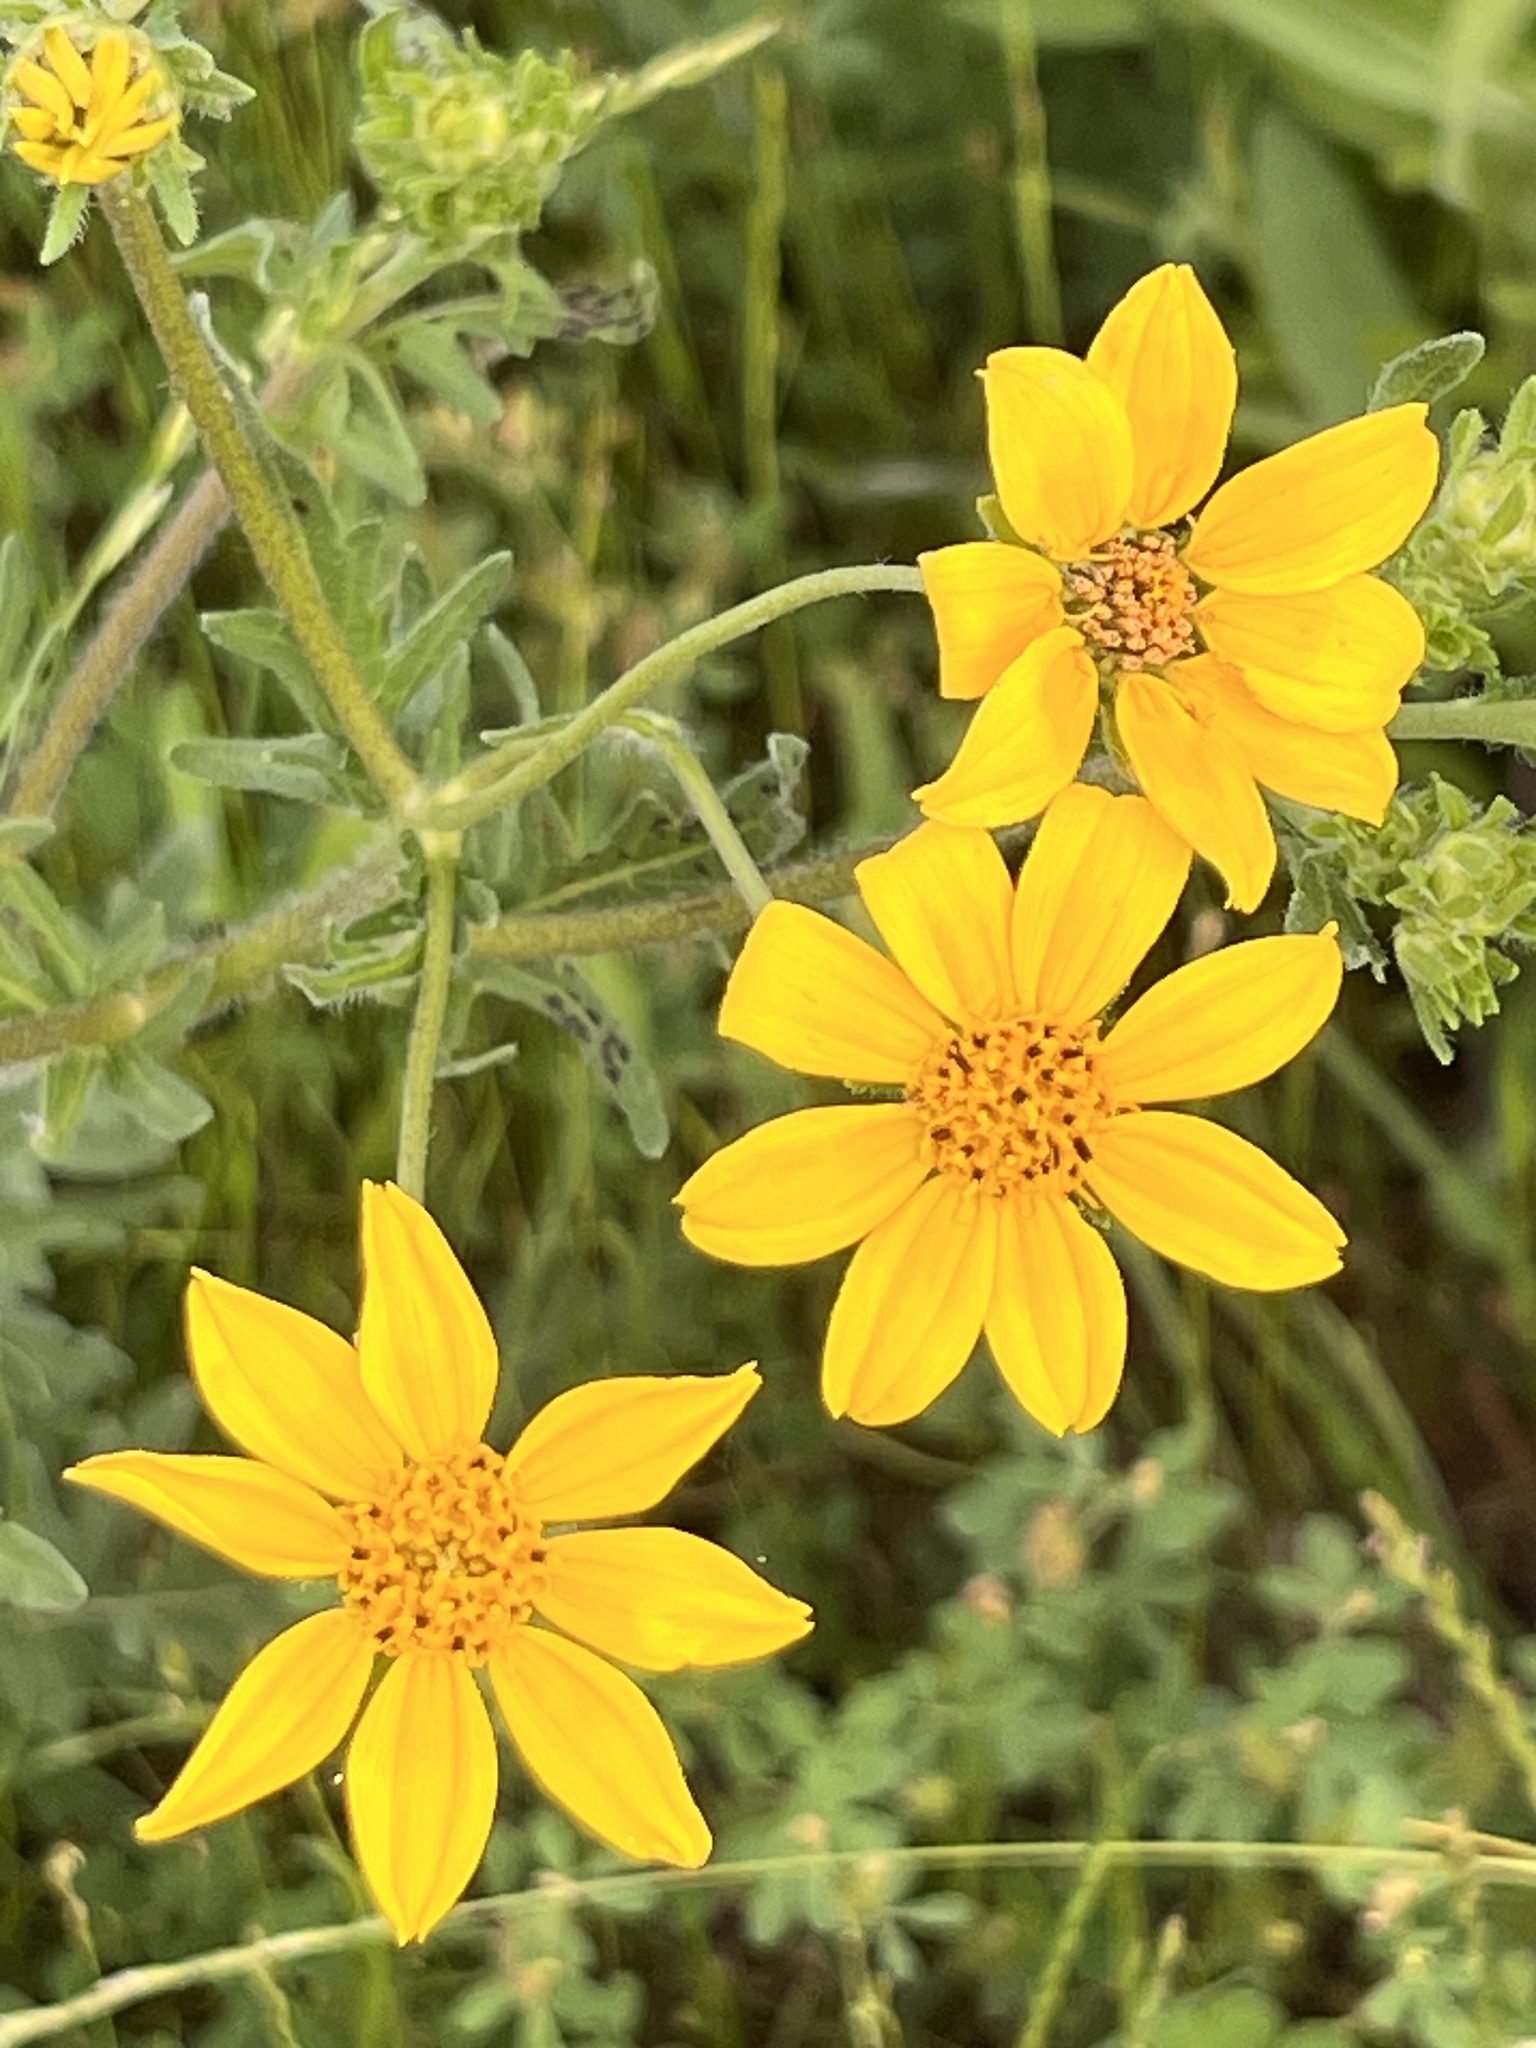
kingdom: Plantae
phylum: Tracheophyta
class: Magnoliopsida
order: Asterales
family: Asteraceae
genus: Engelmannia
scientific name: Engelmannia peristenia
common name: Engelmann's daisy
